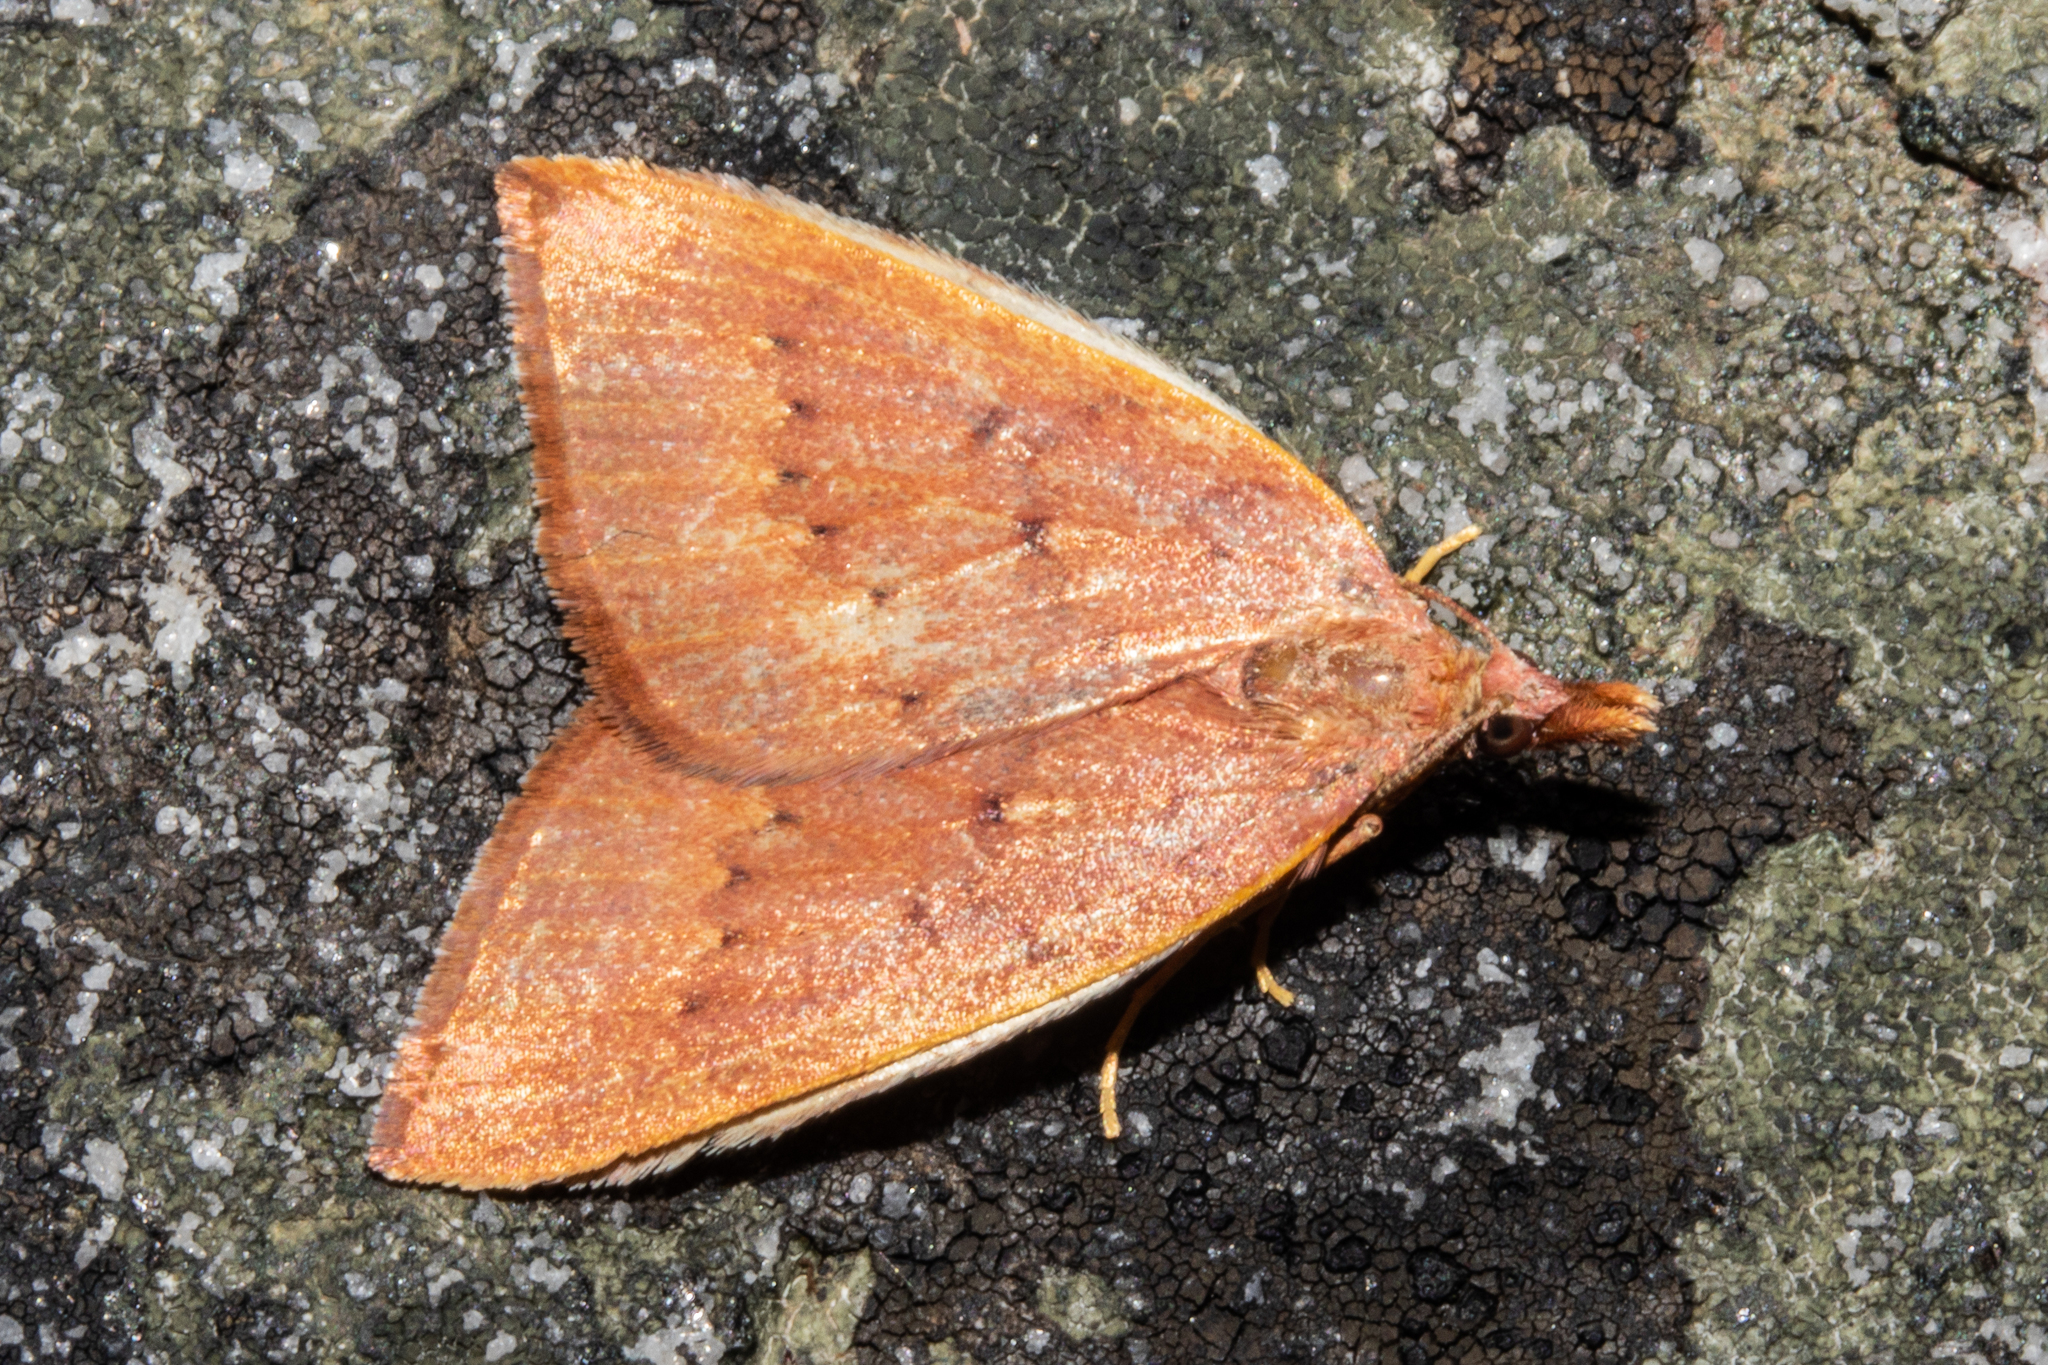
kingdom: Animalia
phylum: Arthropoda
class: Insecta
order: Lepidoptera
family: Geometridae
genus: Xanthorhoe
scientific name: Xanthorhoe occulta
